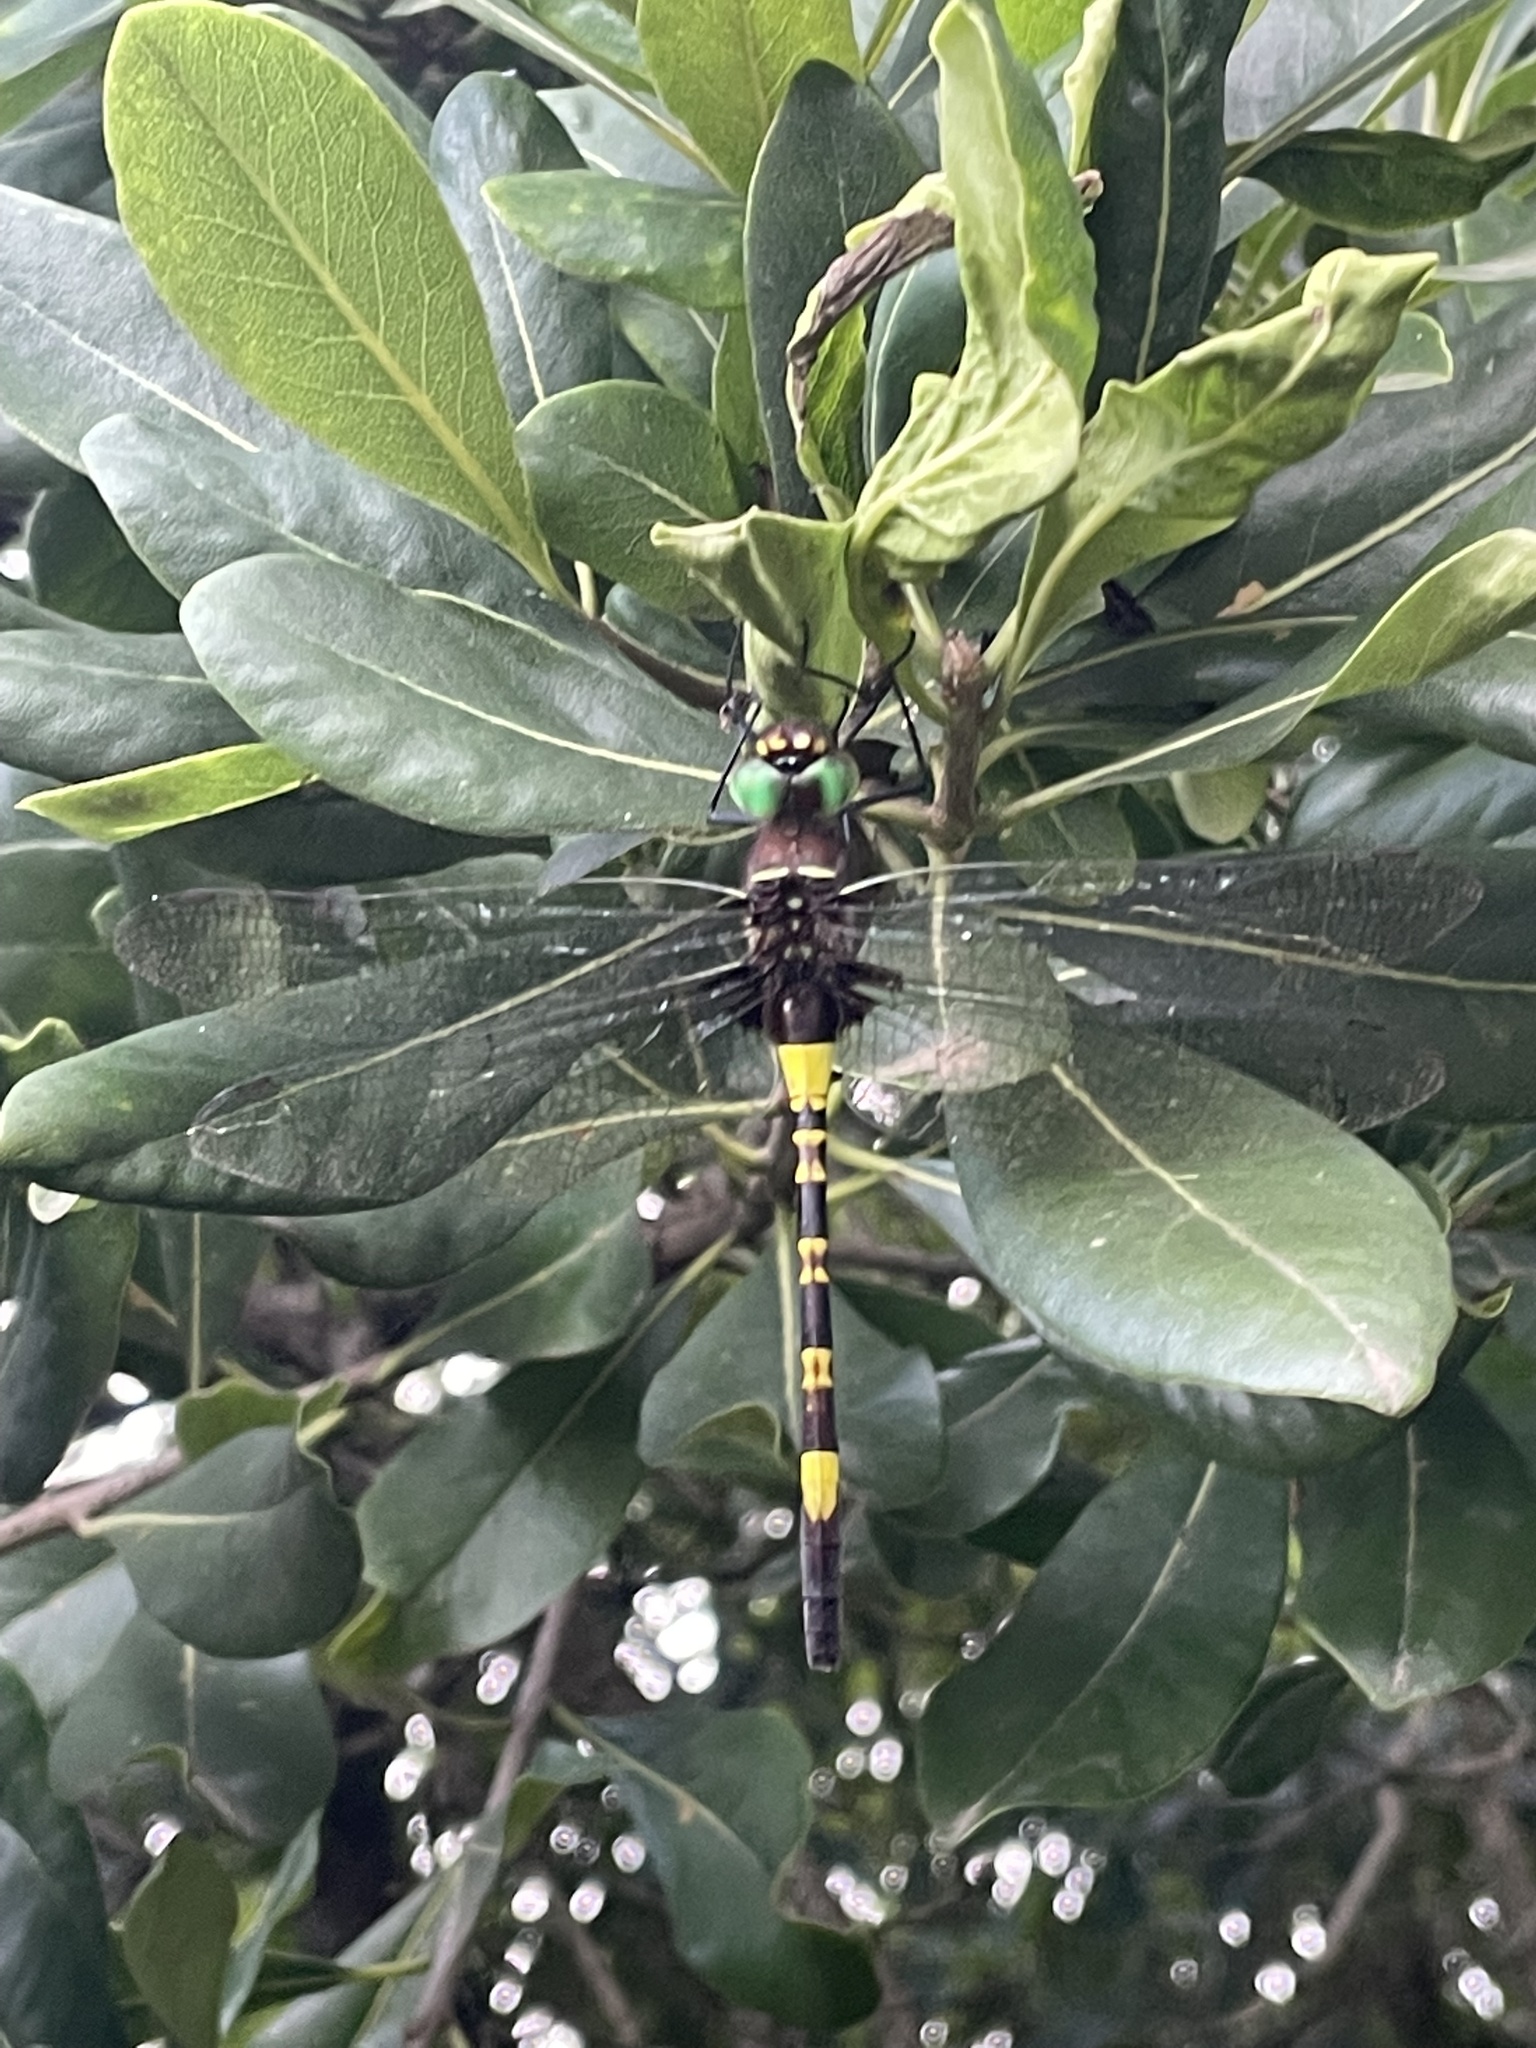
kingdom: Animalia
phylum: Arthropoda
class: Insecta
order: Odonata
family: Macromiidae
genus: Phyllomacromia
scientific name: Phyllomacromia contumax
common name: Two-banded cruiser
